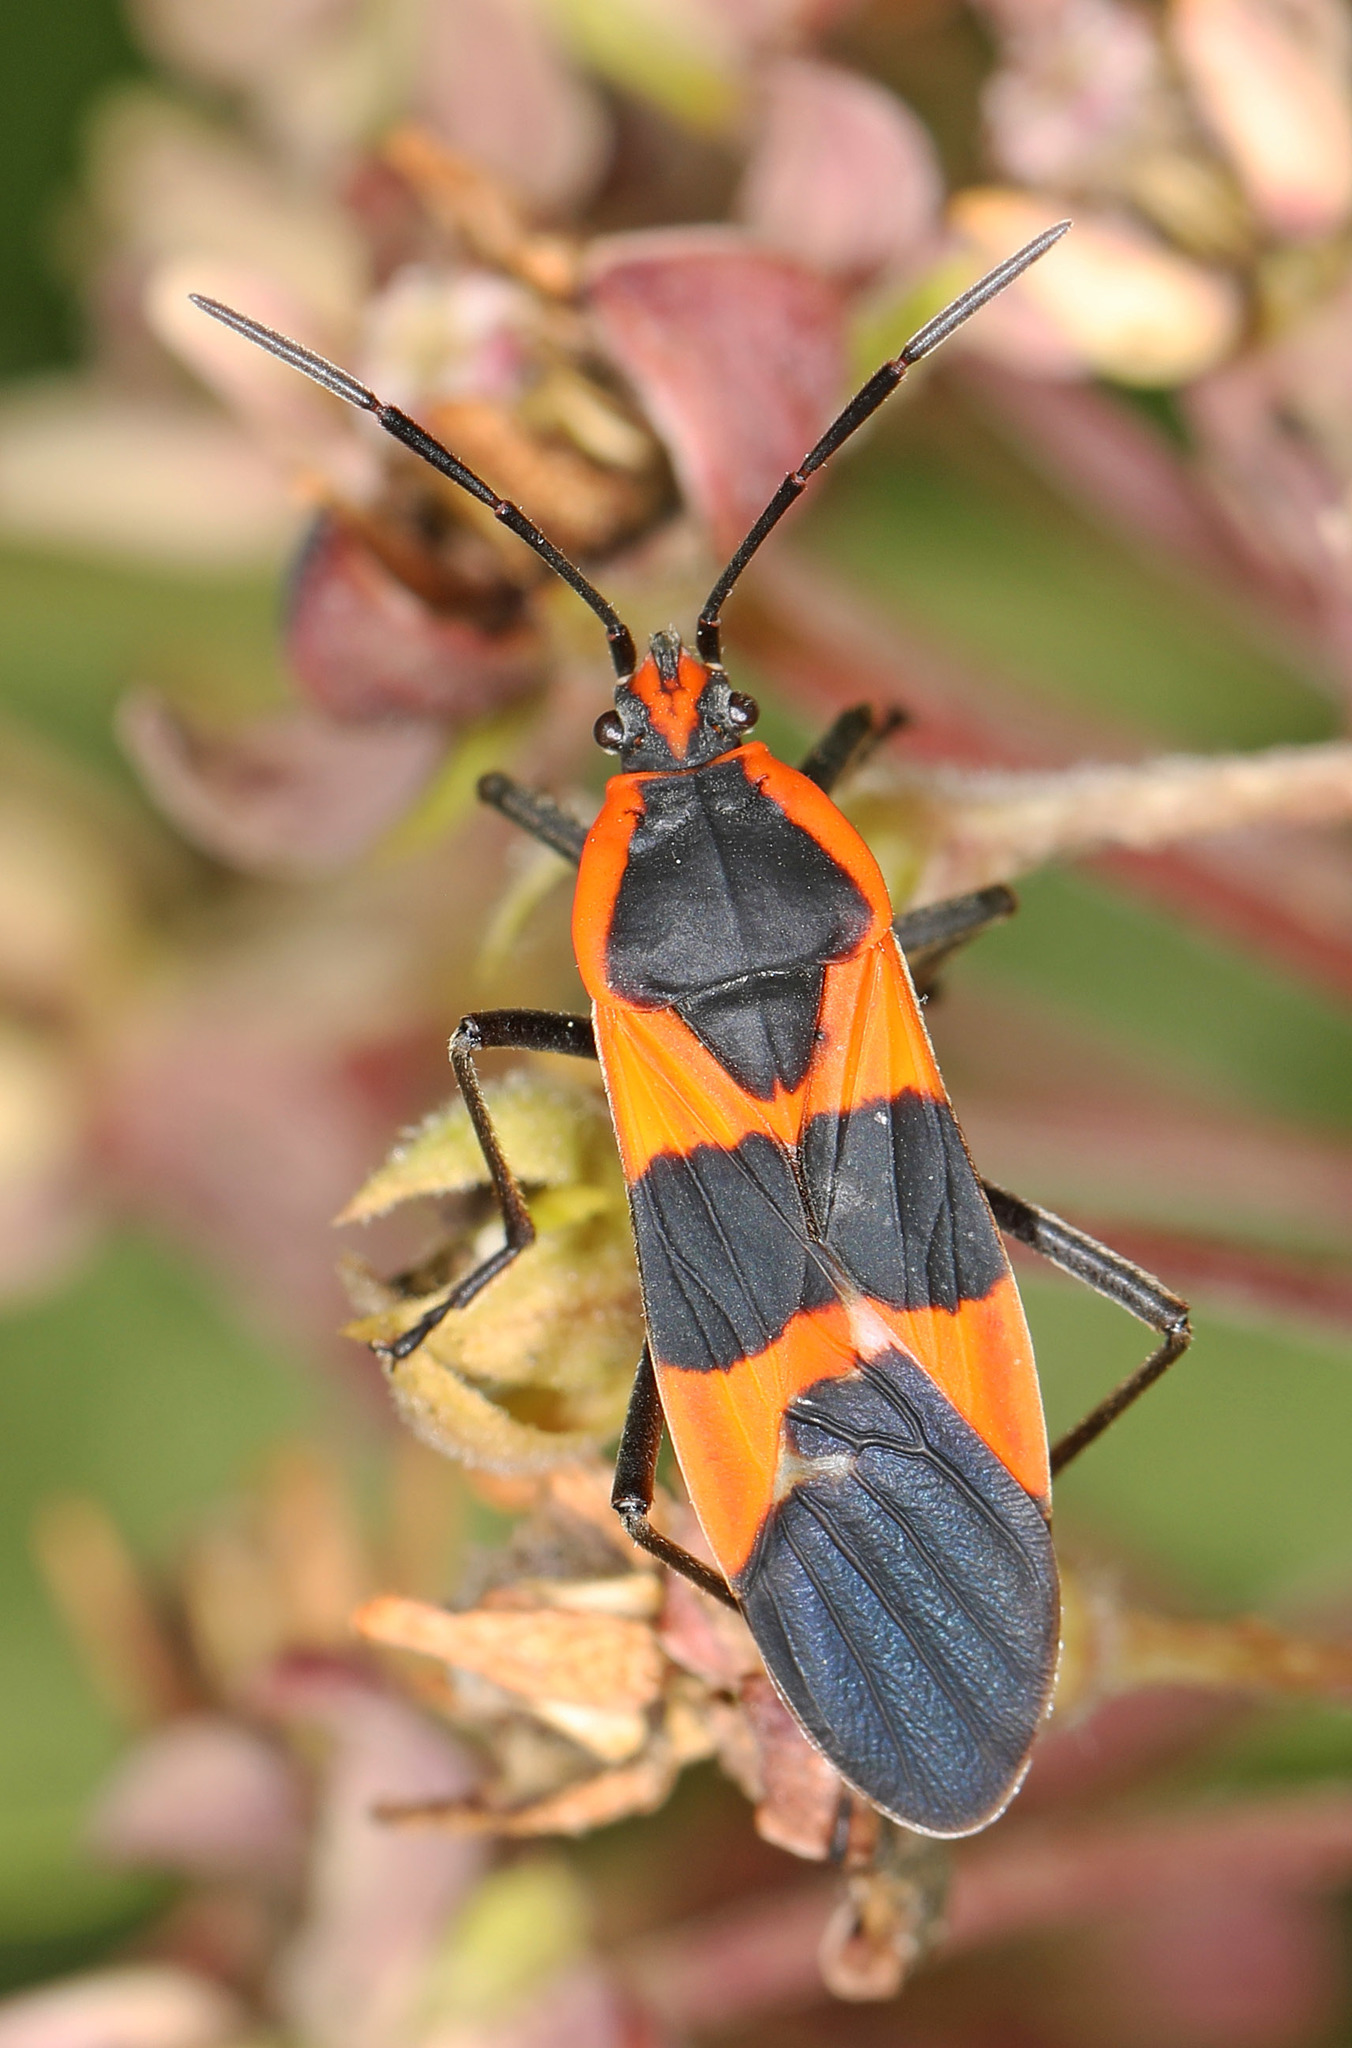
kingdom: Animalia
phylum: Arthropoda
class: Insecta
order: Hemiptera
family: Lygaeidae
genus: Oncopeltus
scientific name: Oncopeltus fasciatus
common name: Large milkweed bug
